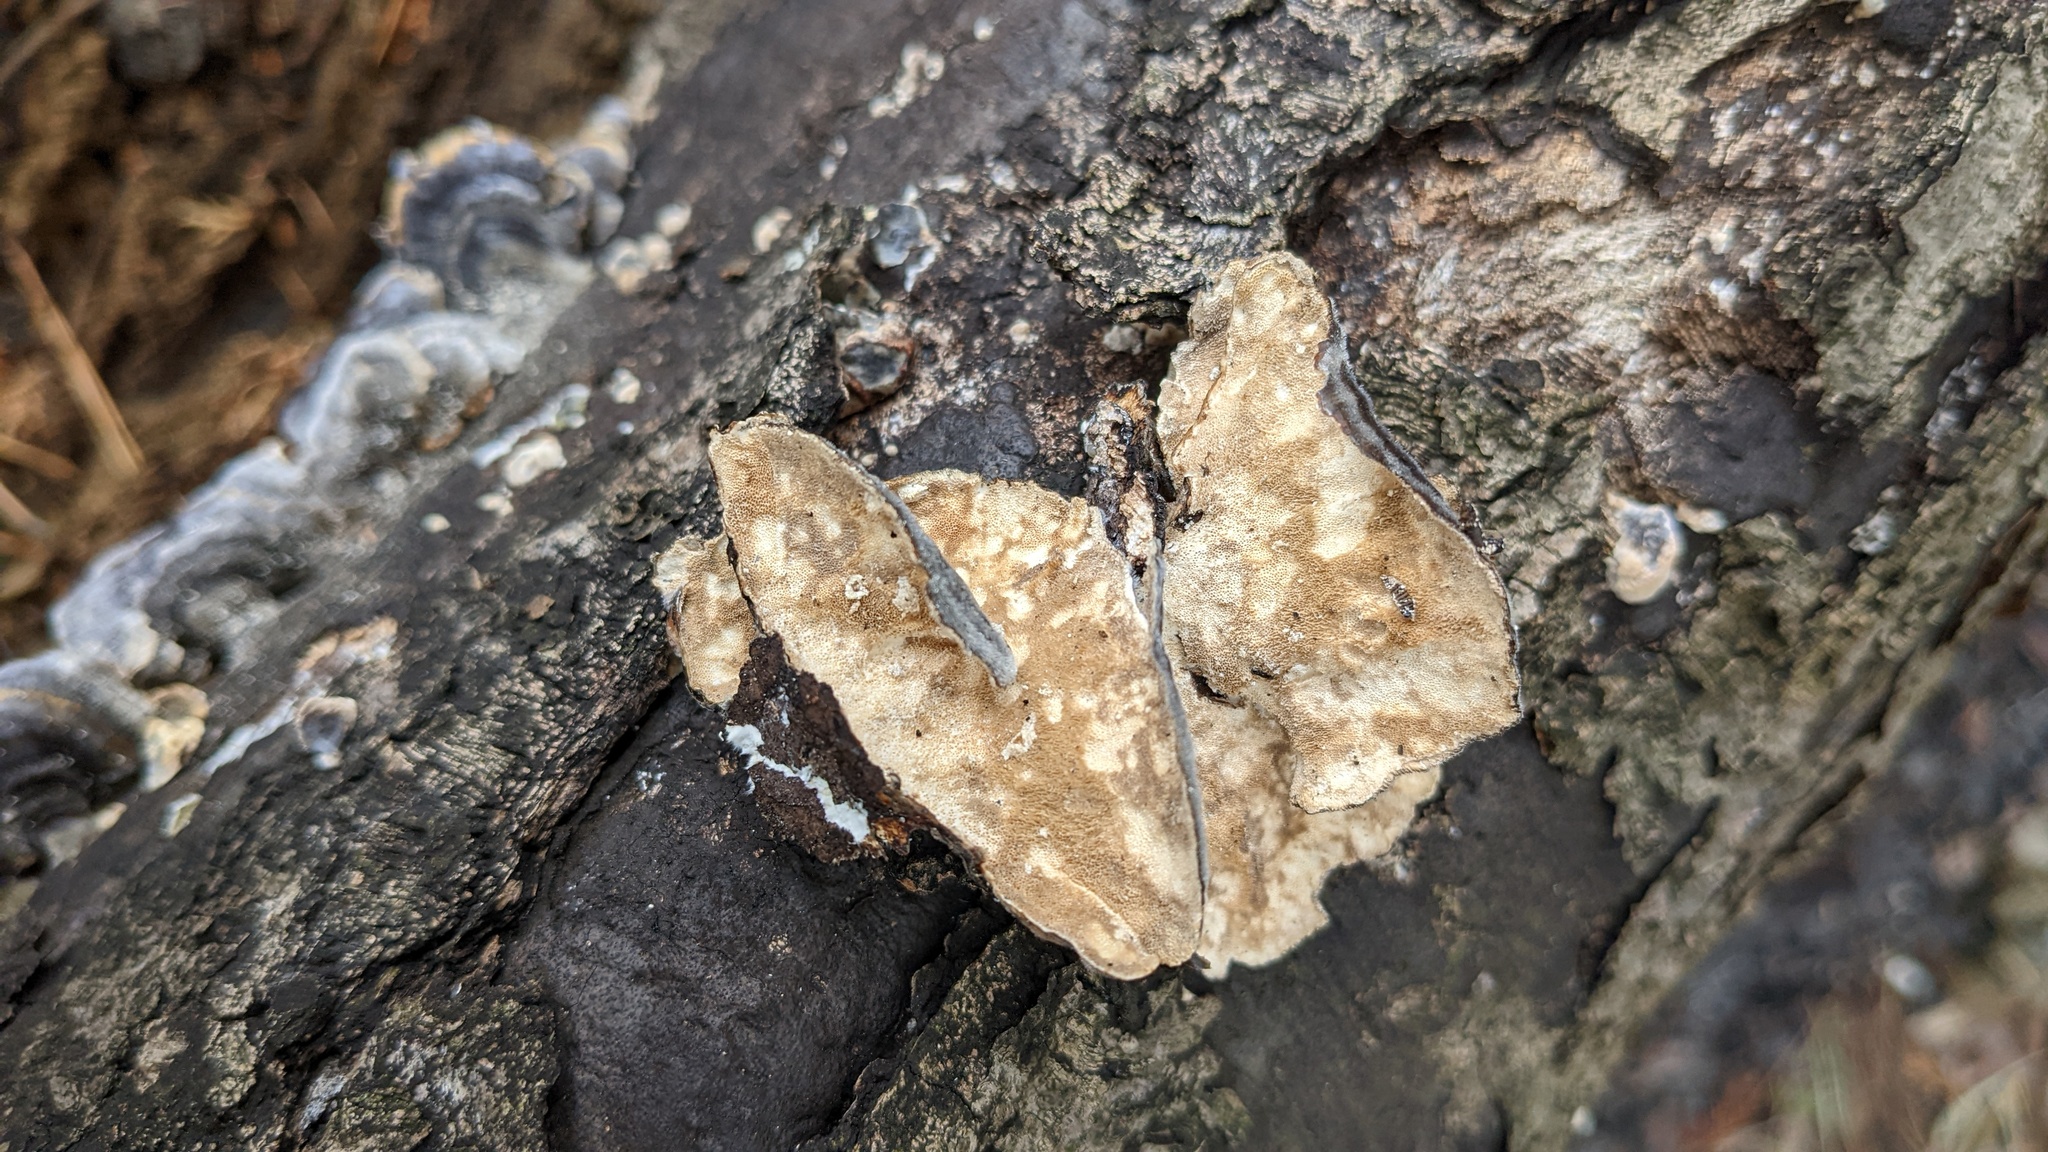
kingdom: Fungi
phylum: Basidiomycota
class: Agaricomycetes
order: Polyporales
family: Polyporaceae
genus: Trametes
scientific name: Trametes versicolor
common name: Turkeytail
